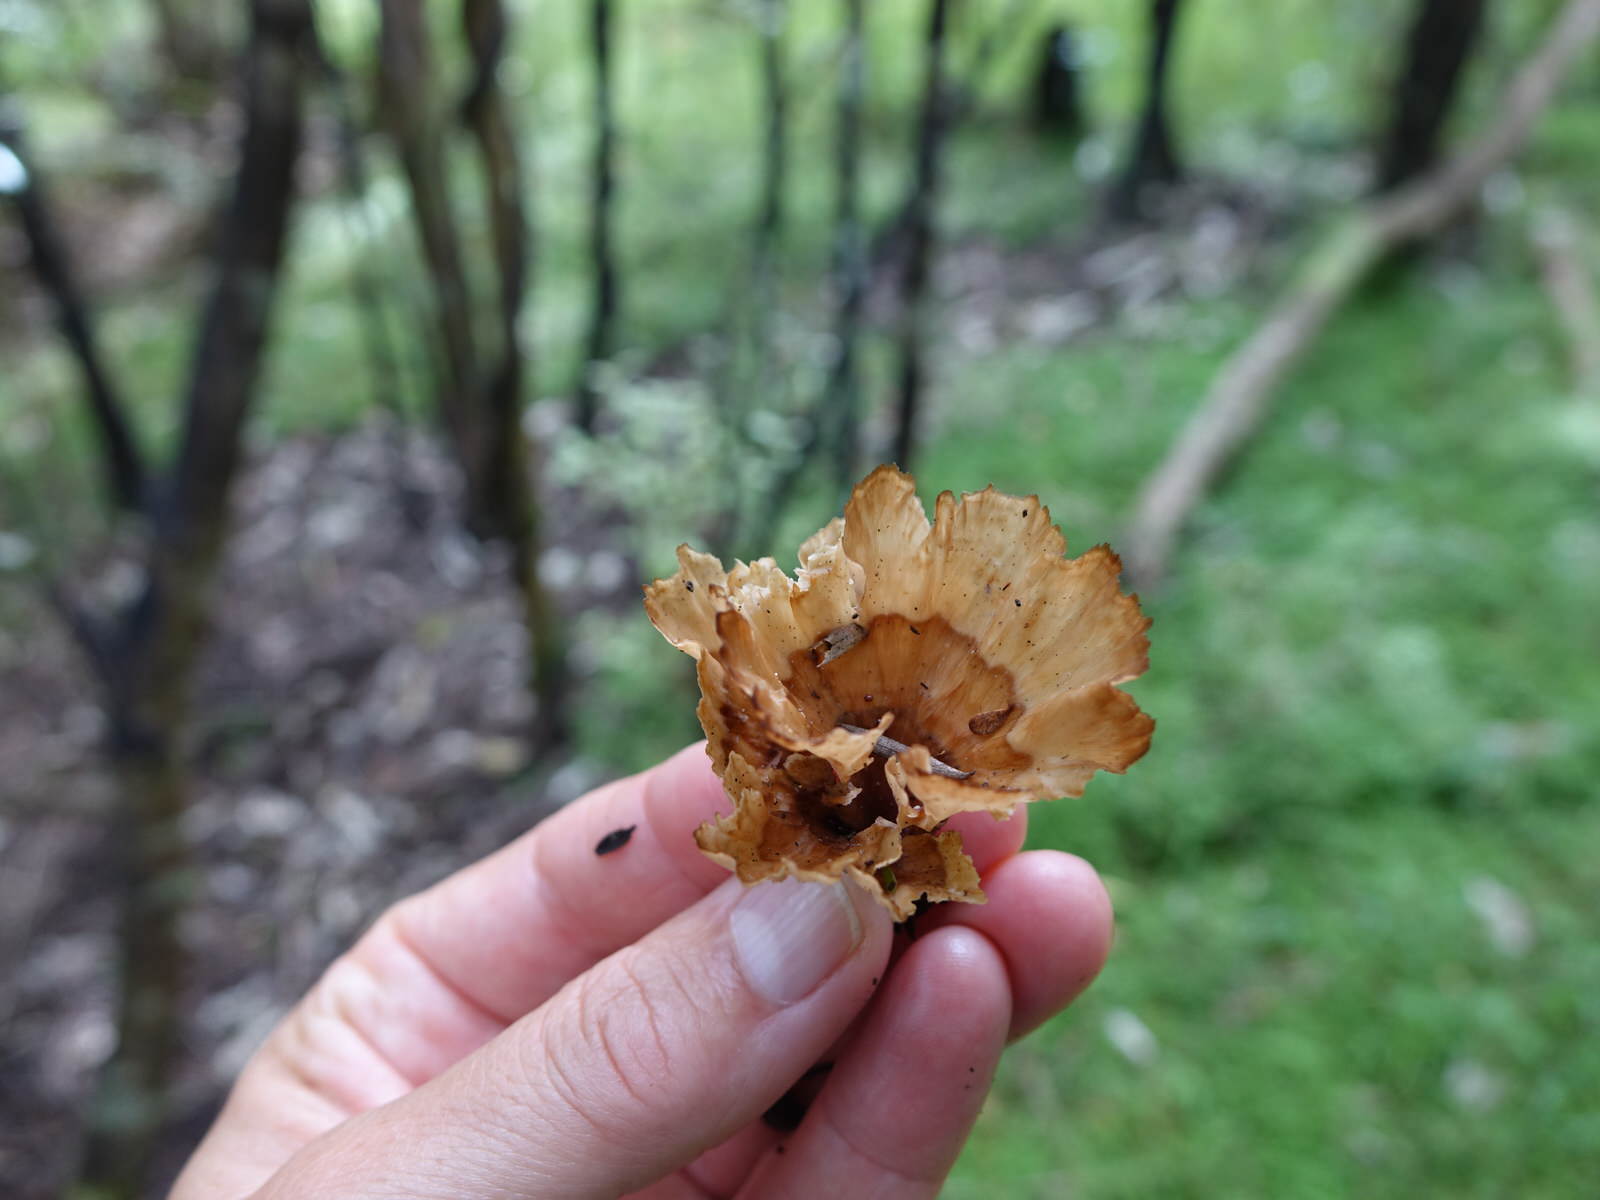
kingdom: Fungi
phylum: Basidiomycota
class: Agaricomycetes
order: Polyporales
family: Podoscyphaceae
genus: Podoscypha
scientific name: Podoscypha petalodes
